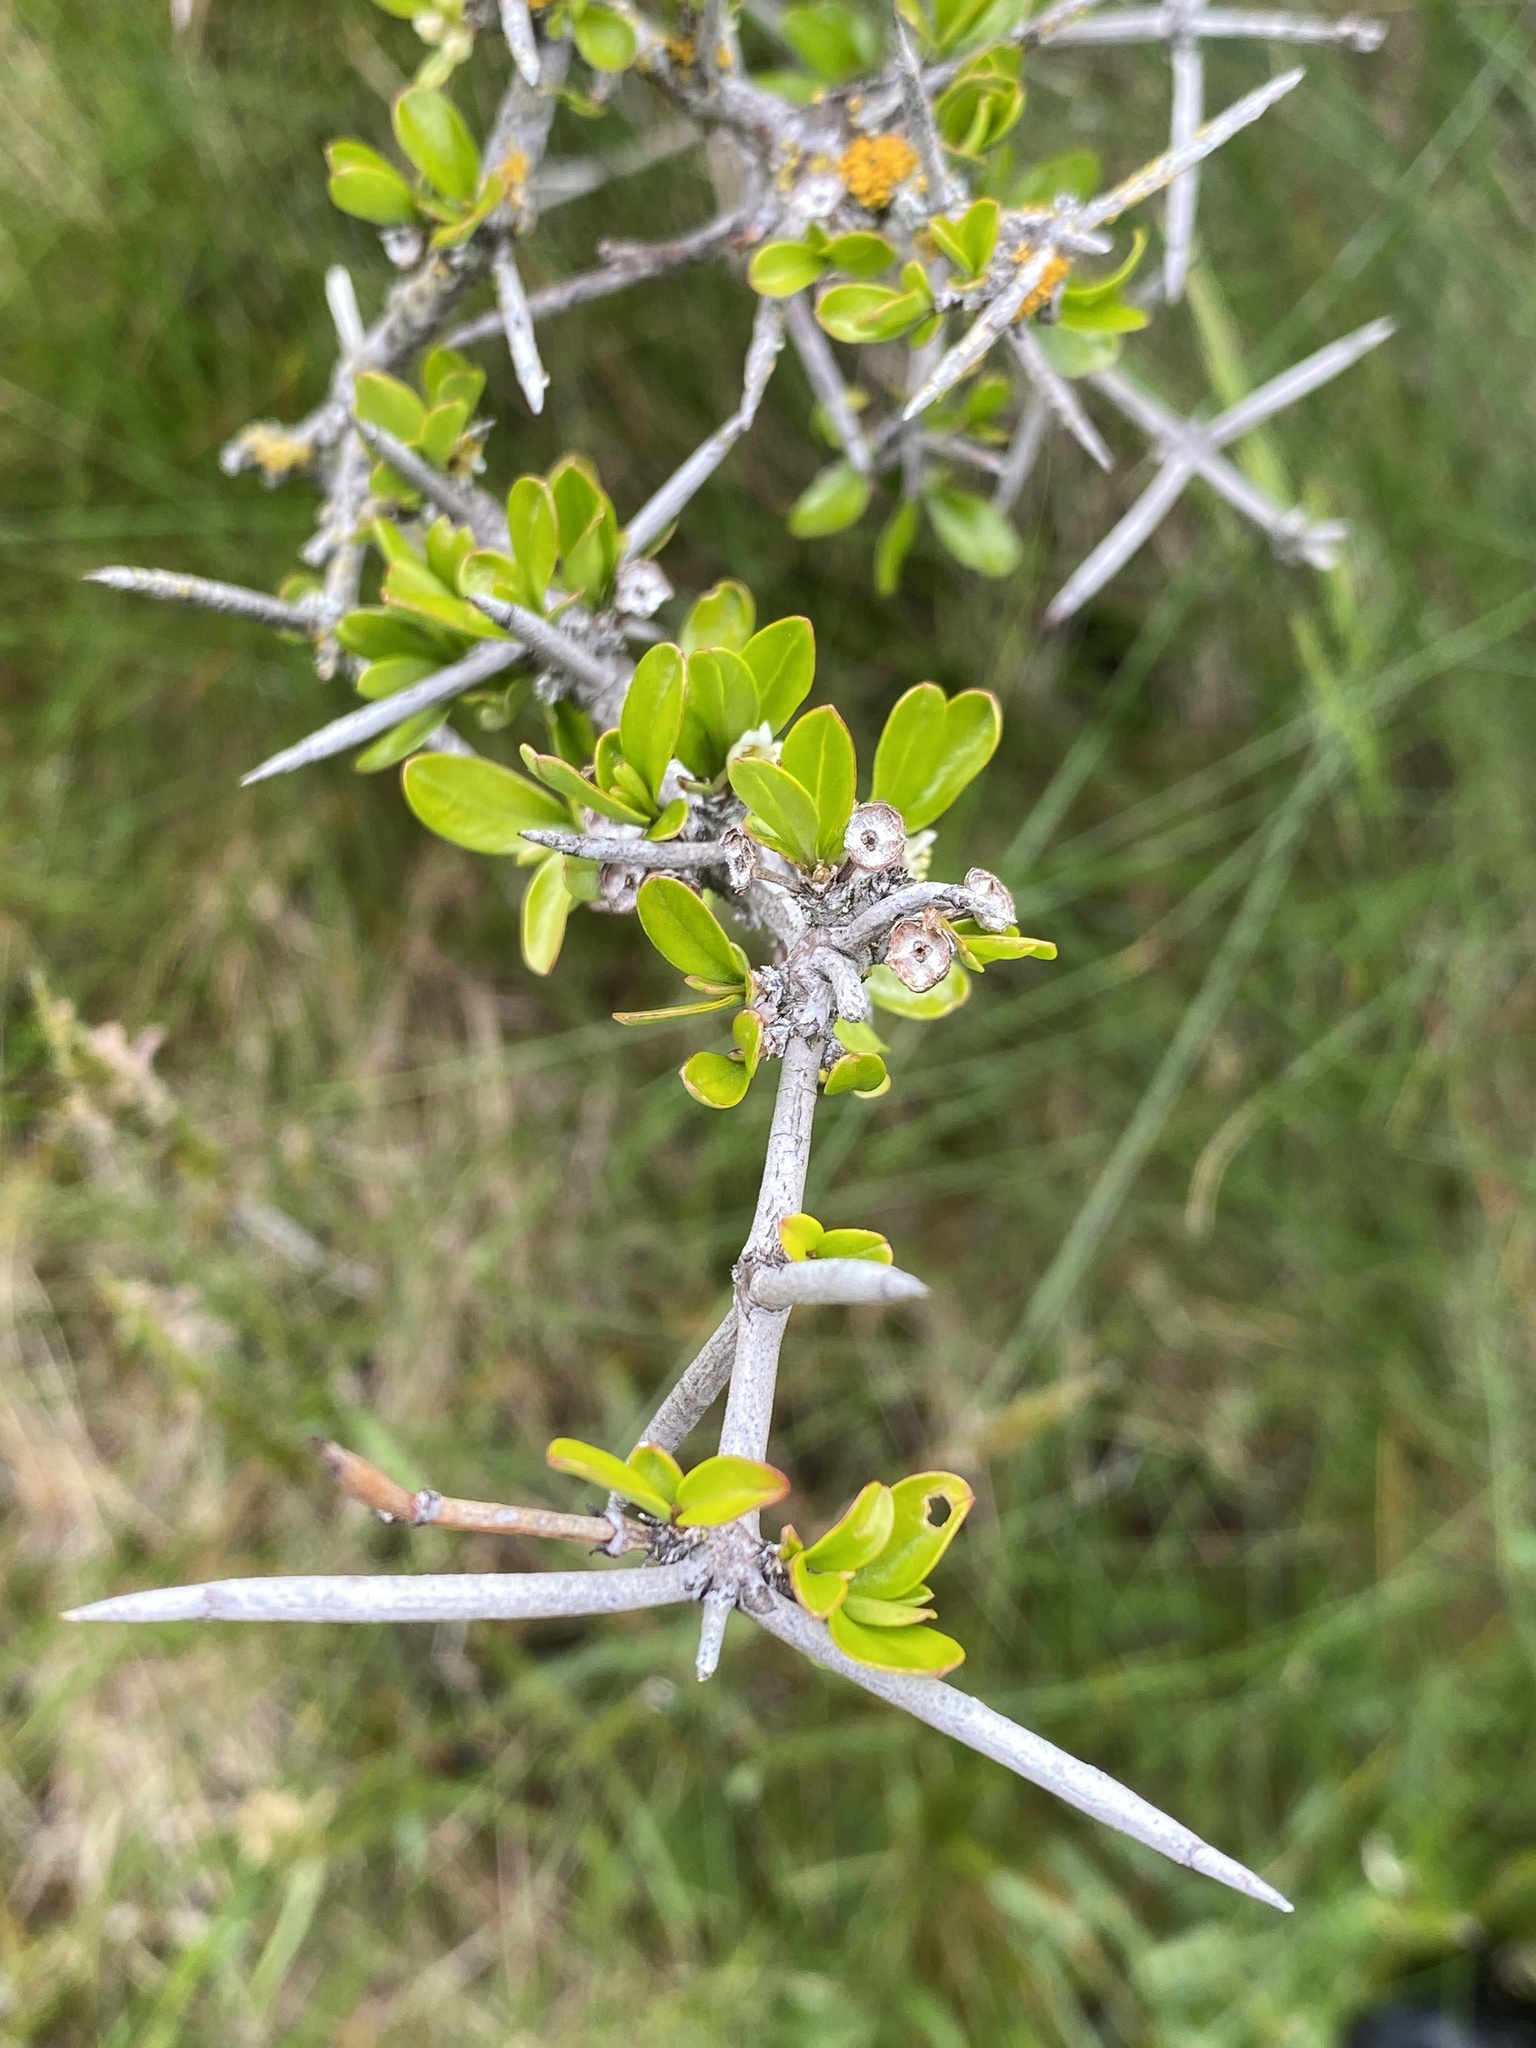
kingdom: Plantae
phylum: Tracheophyta
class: Magnoliopsida
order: Rosales
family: Rhamnaceae
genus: Discaria
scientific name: Discaria toumatou
